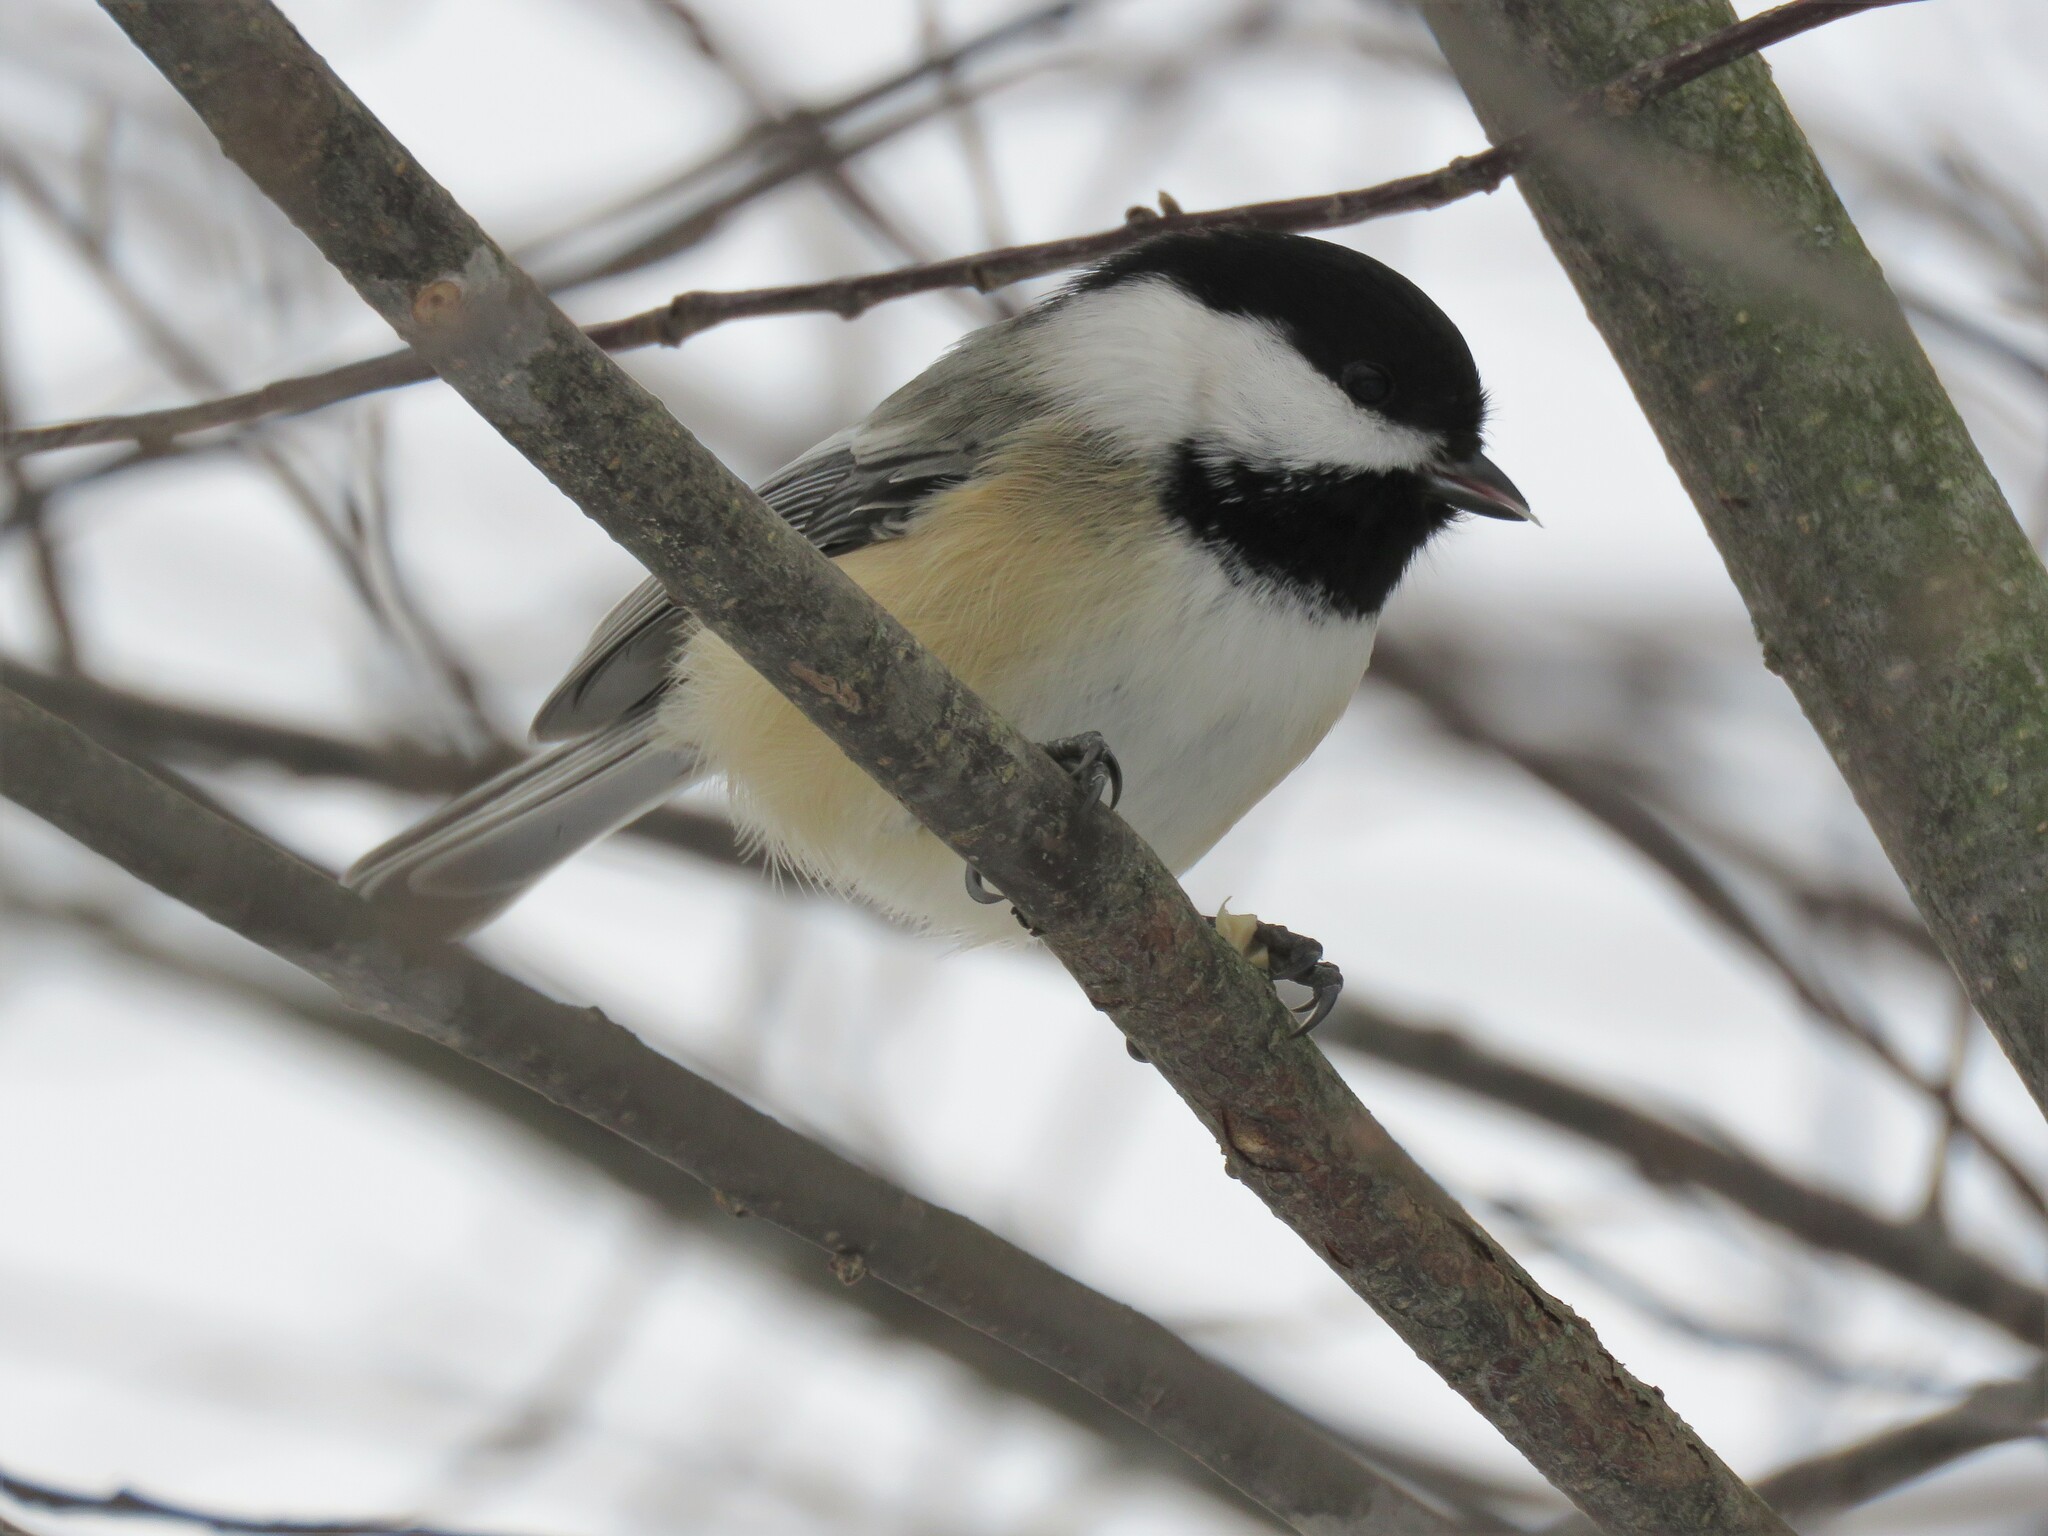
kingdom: Animalia
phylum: Chordata
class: Aves
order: Passeriformes
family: Paridae
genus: Poecile
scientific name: Poecile atricapillus
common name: Black-capped chickadee
